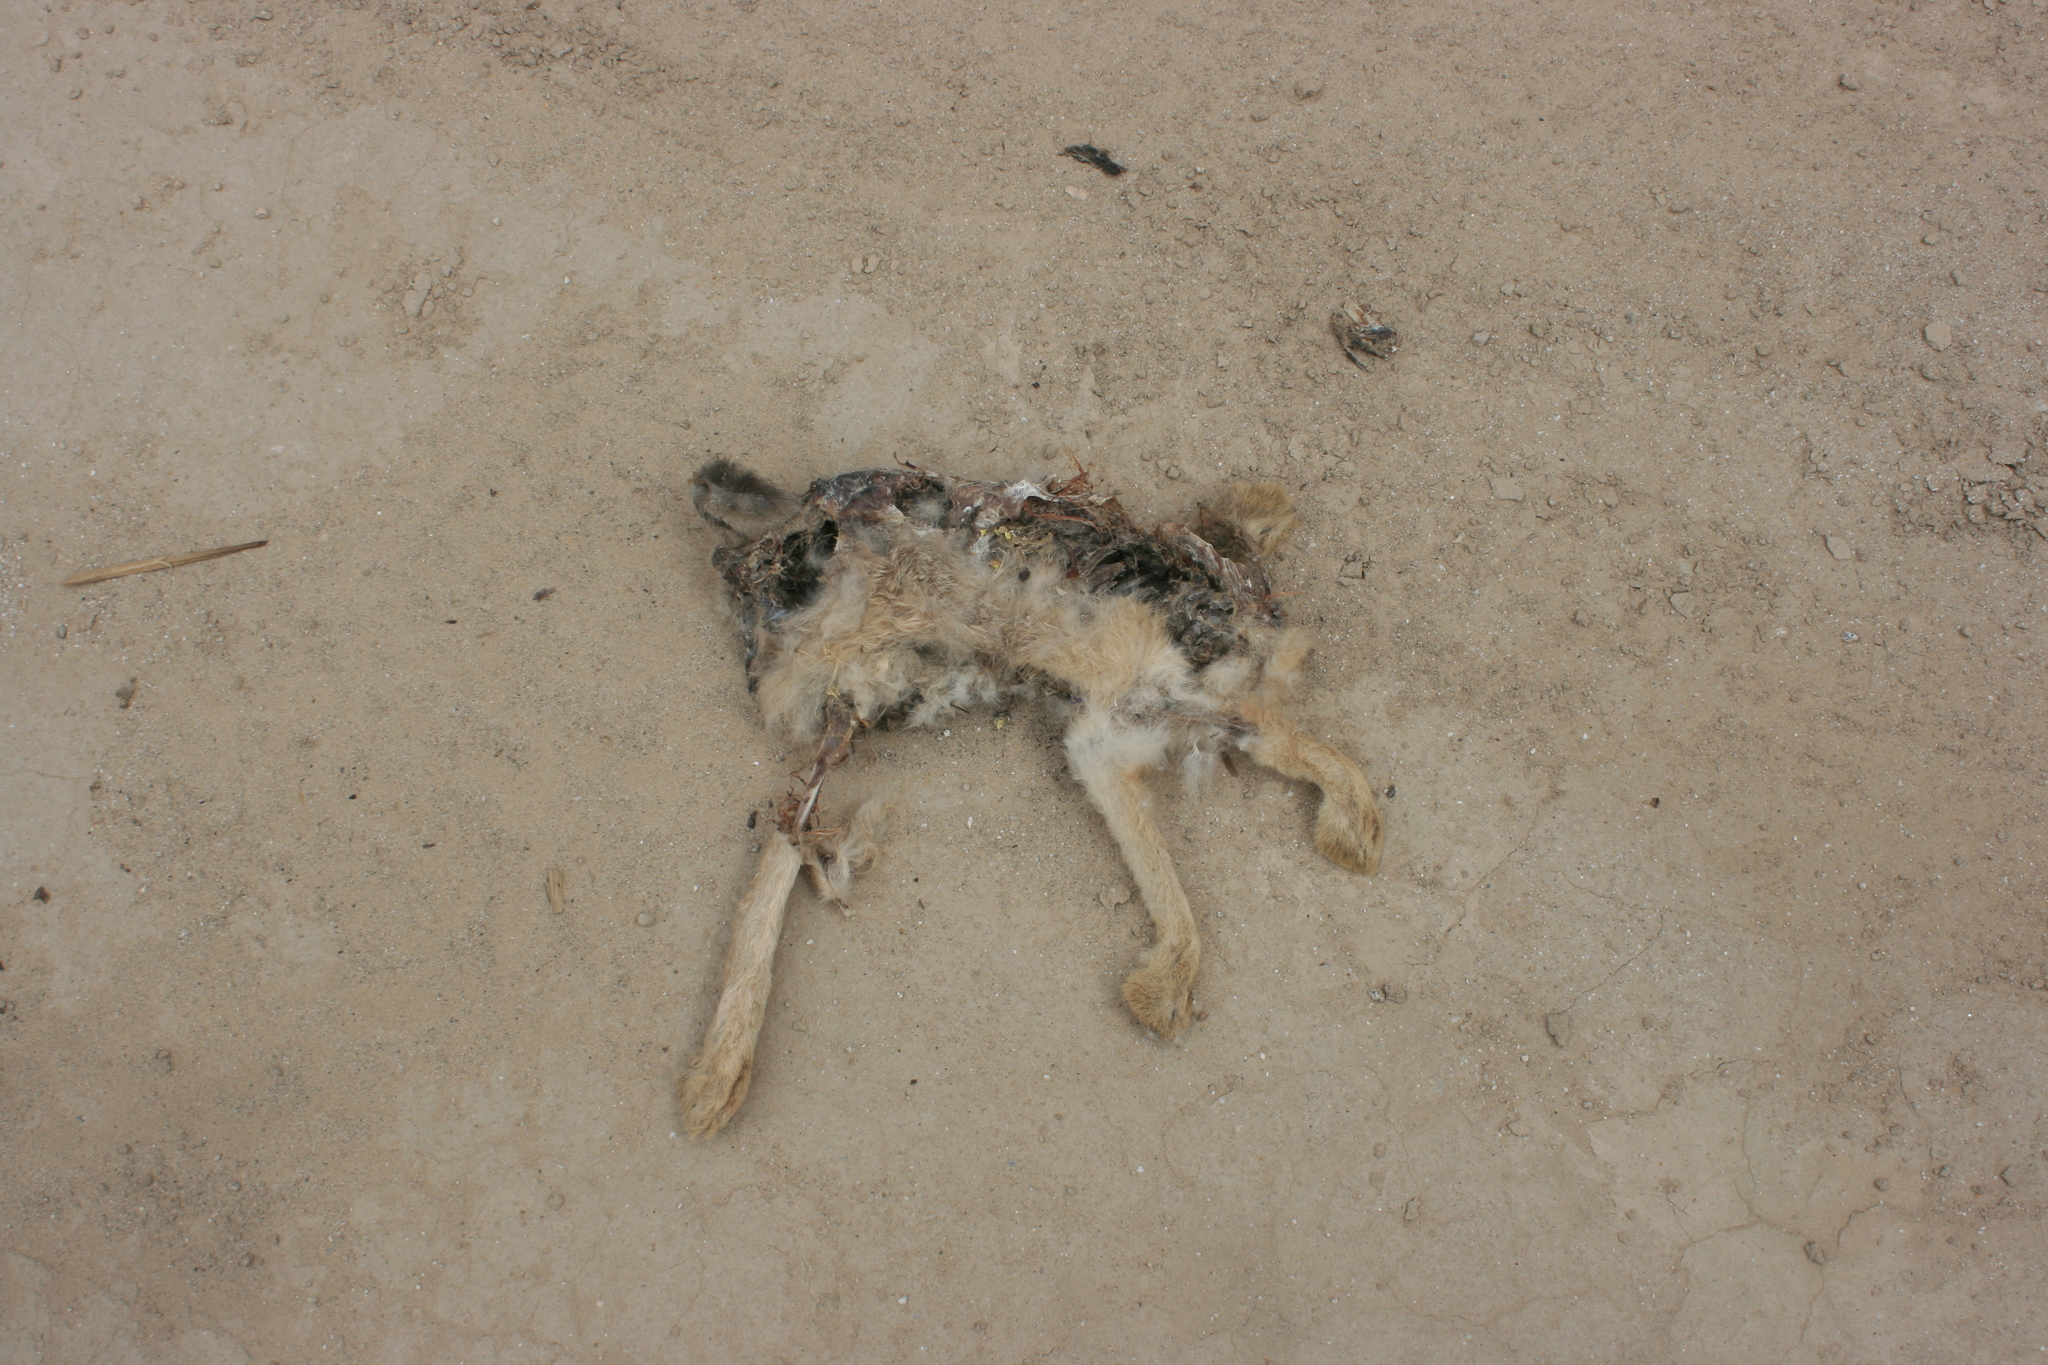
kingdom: Animalia
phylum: Chordata
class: Mammalia
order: Lagomorpha
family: Leporidae
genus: Lepus
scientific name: Lepus californicus
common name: Black-tailed jackrabbit
